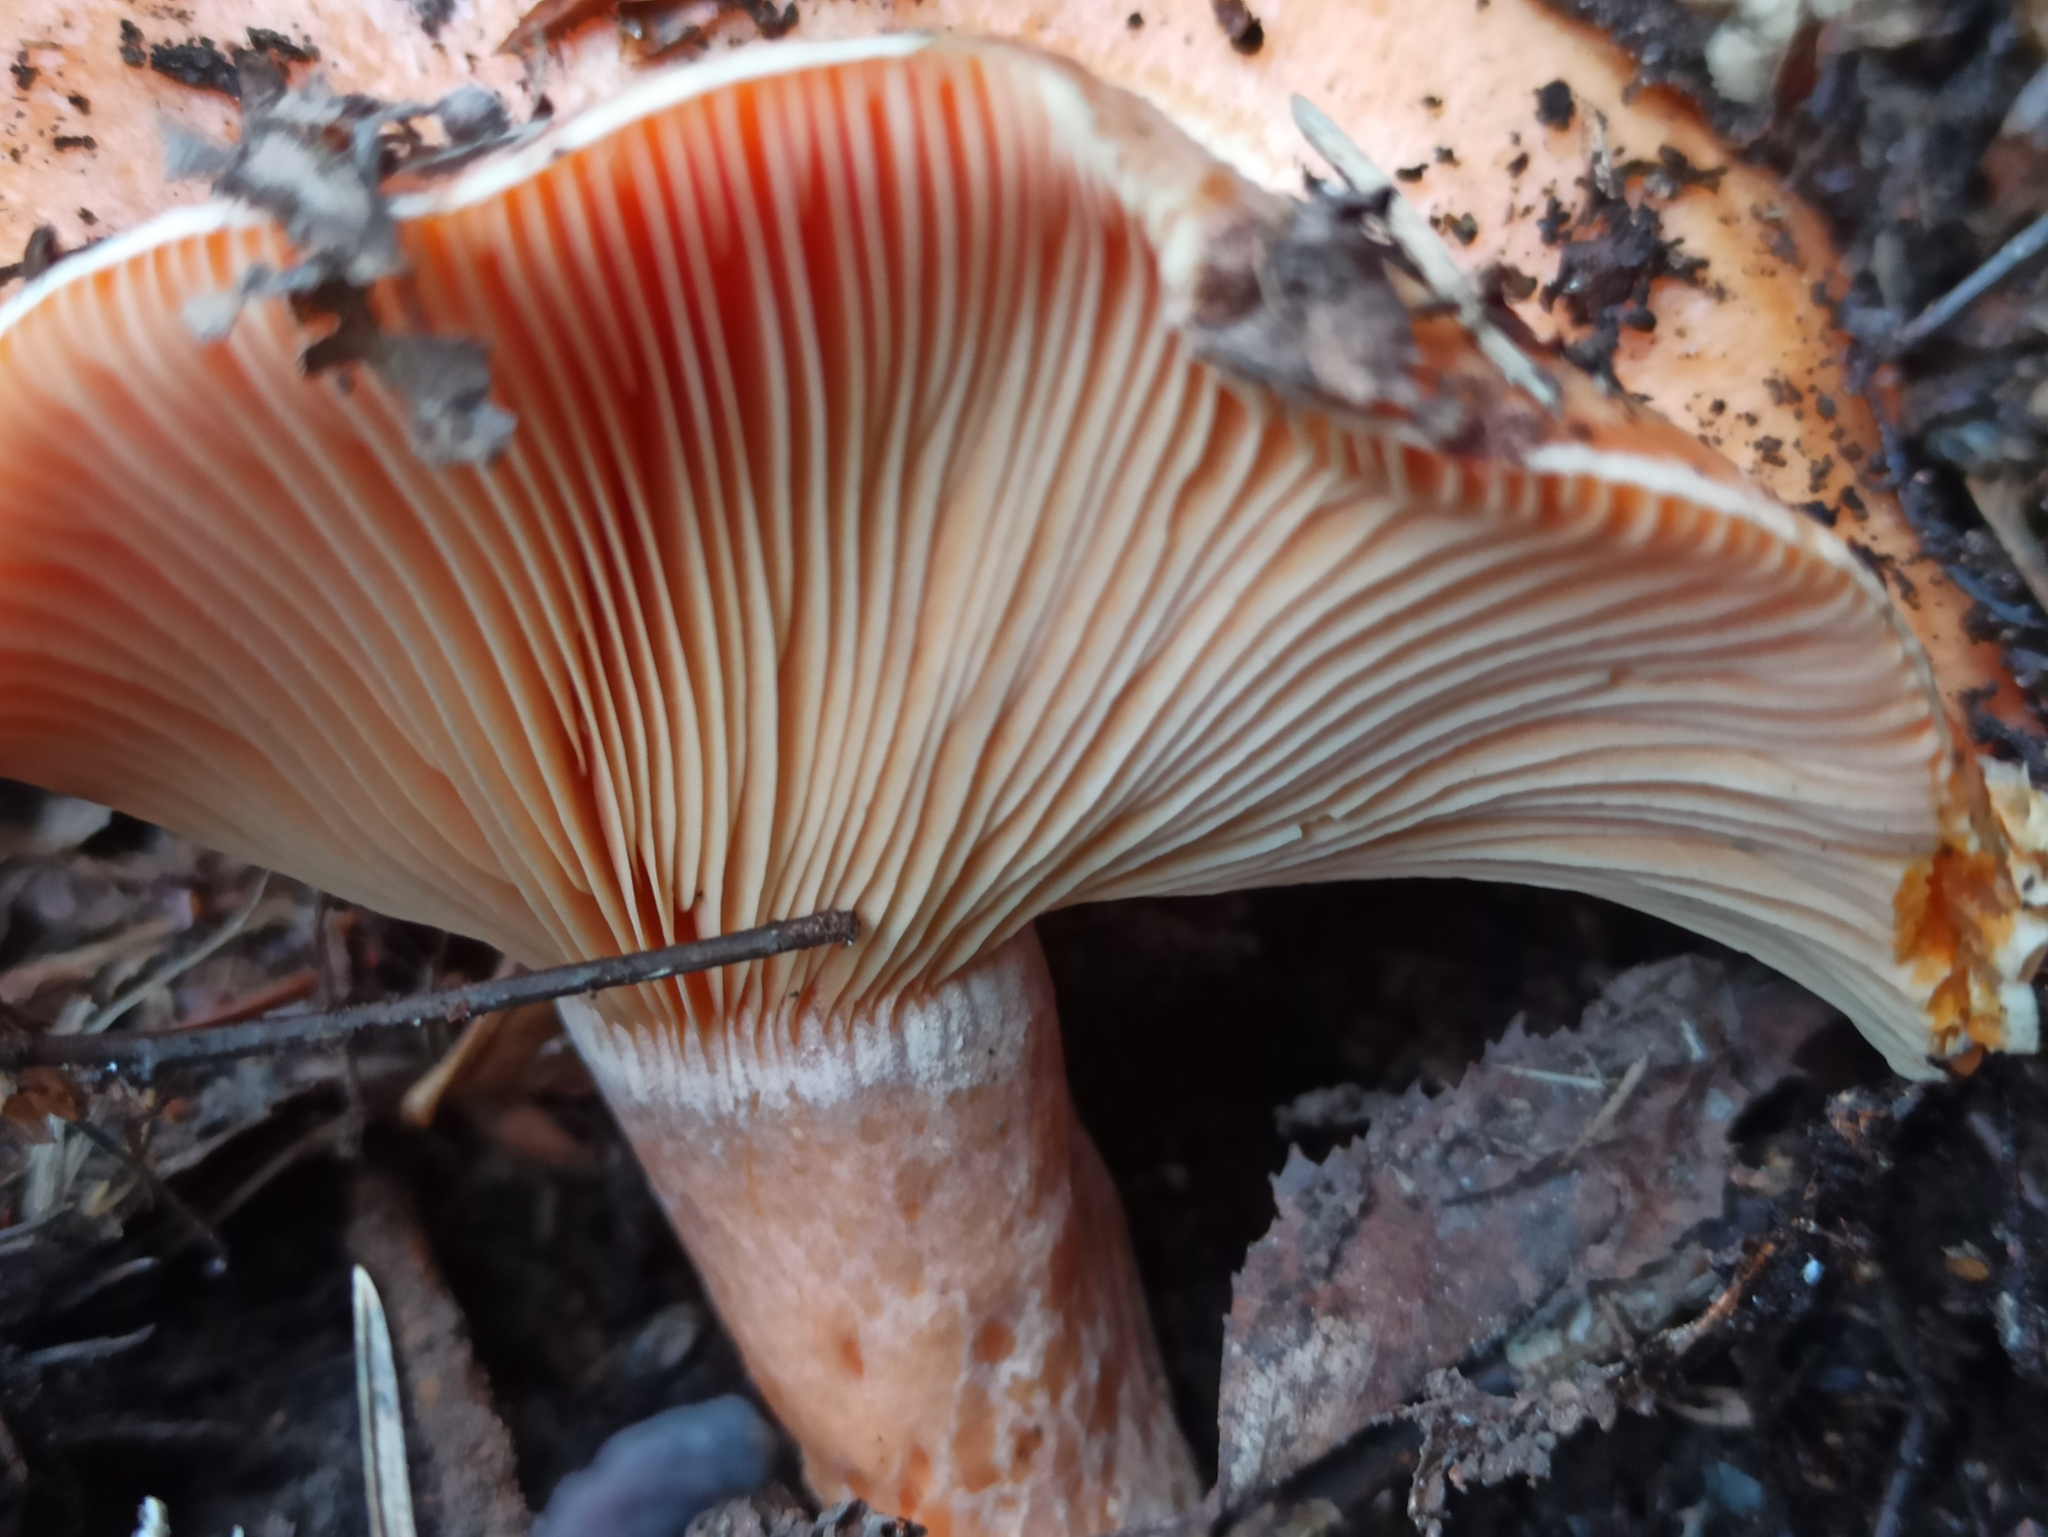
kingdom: Fungi
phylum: Basidiomycota
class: Agaricomycetes
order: Russulales
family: Russulaceae
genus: Lactarius
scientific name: Lactarius deliciosus
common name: Saffron milk-cap
